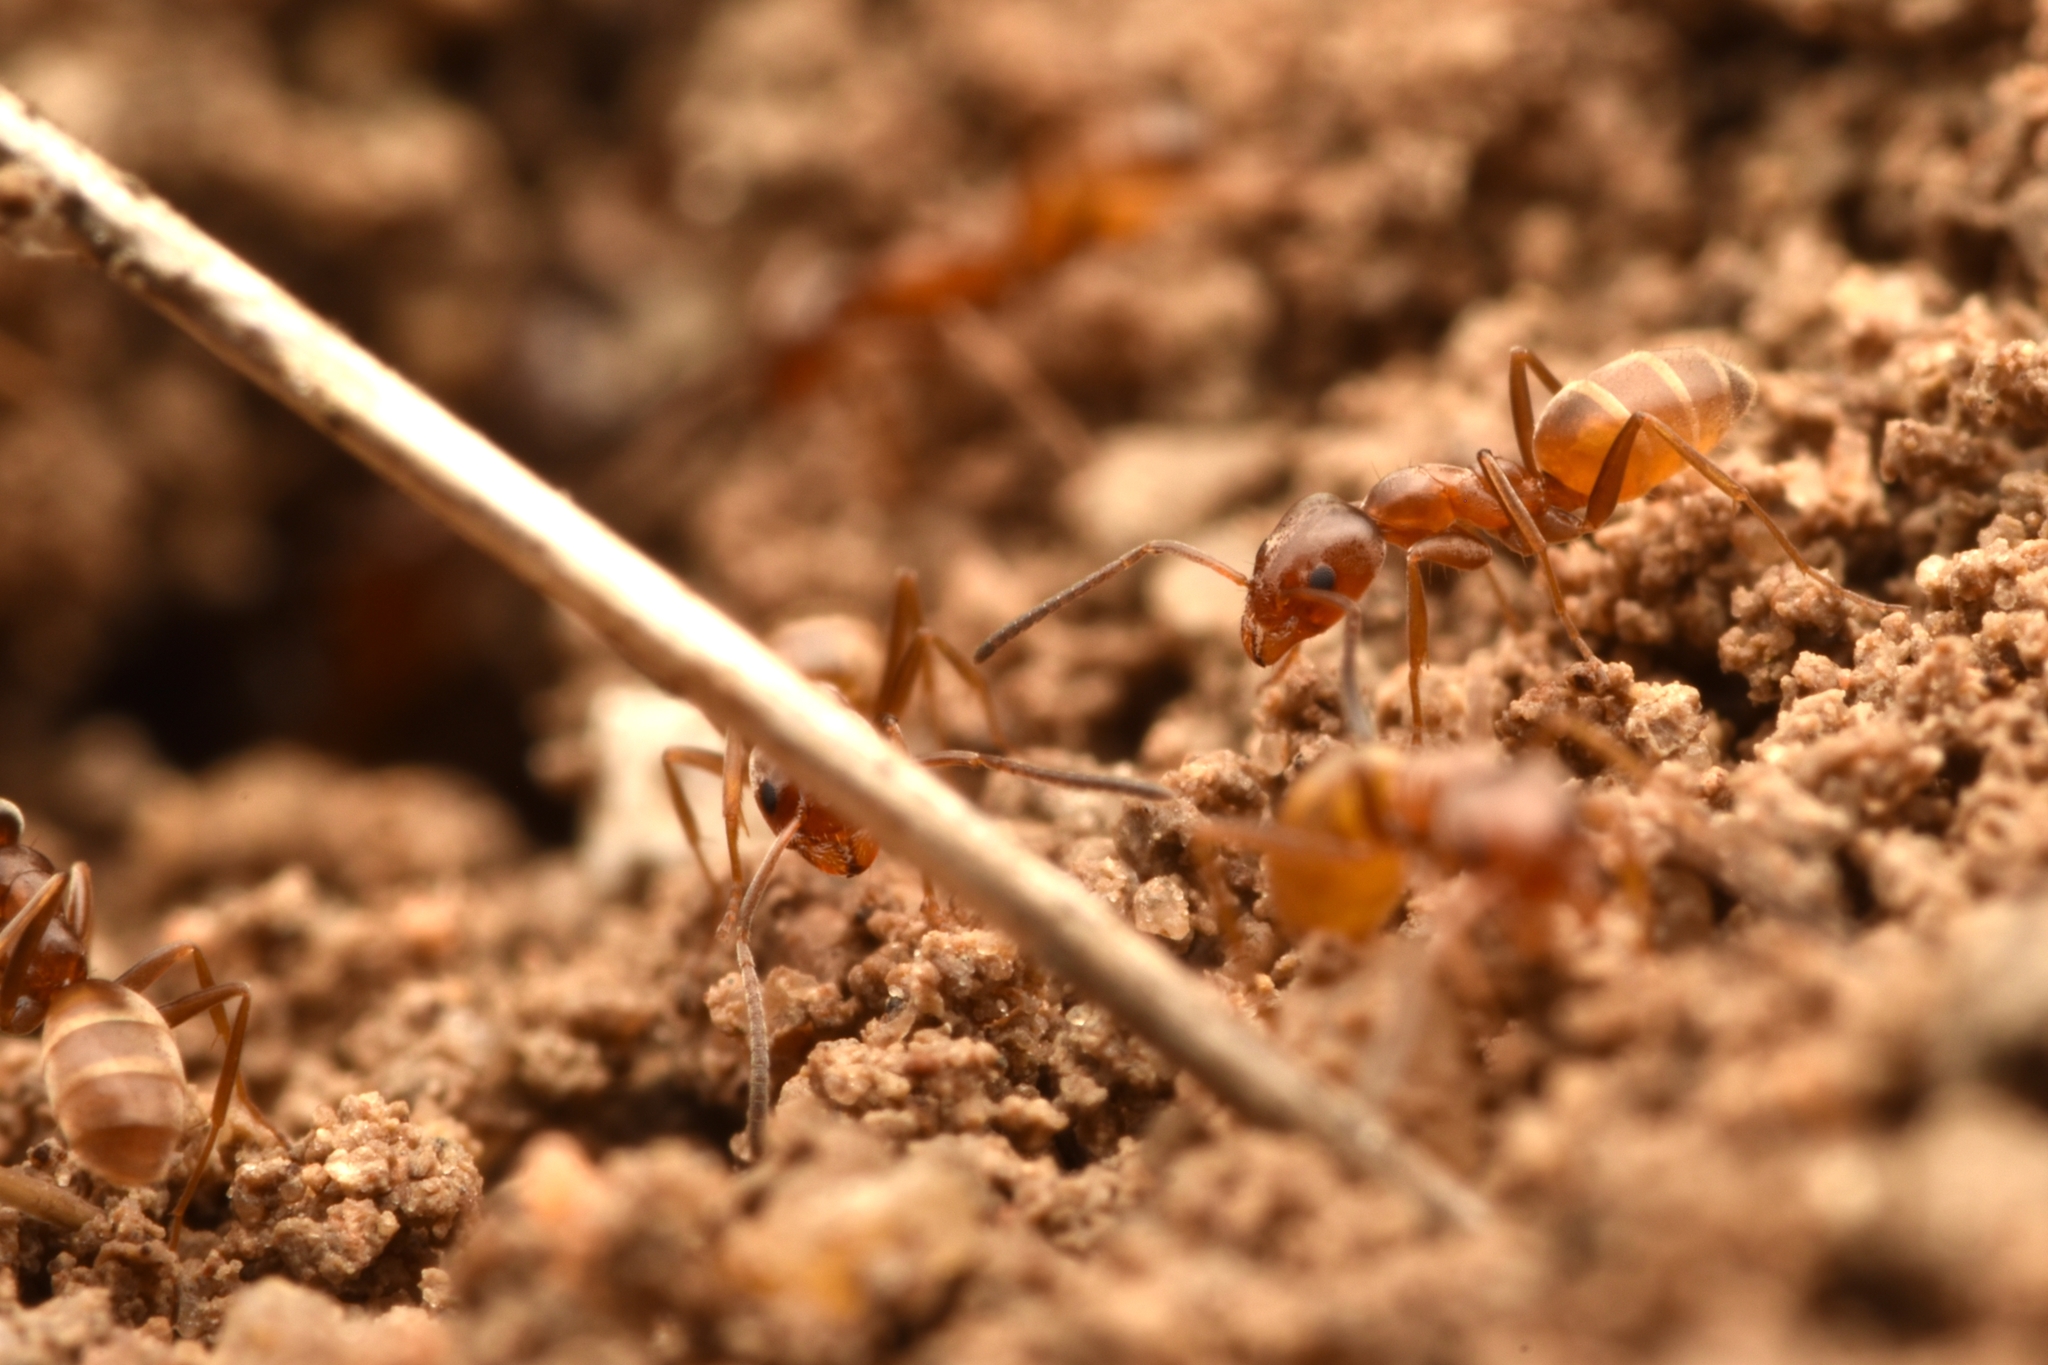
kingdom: Animalia
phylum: Arthropoda
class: Insecta
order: Hymenoptera
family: Formicidae
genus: Forelius
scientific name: Forelius pruinosus
